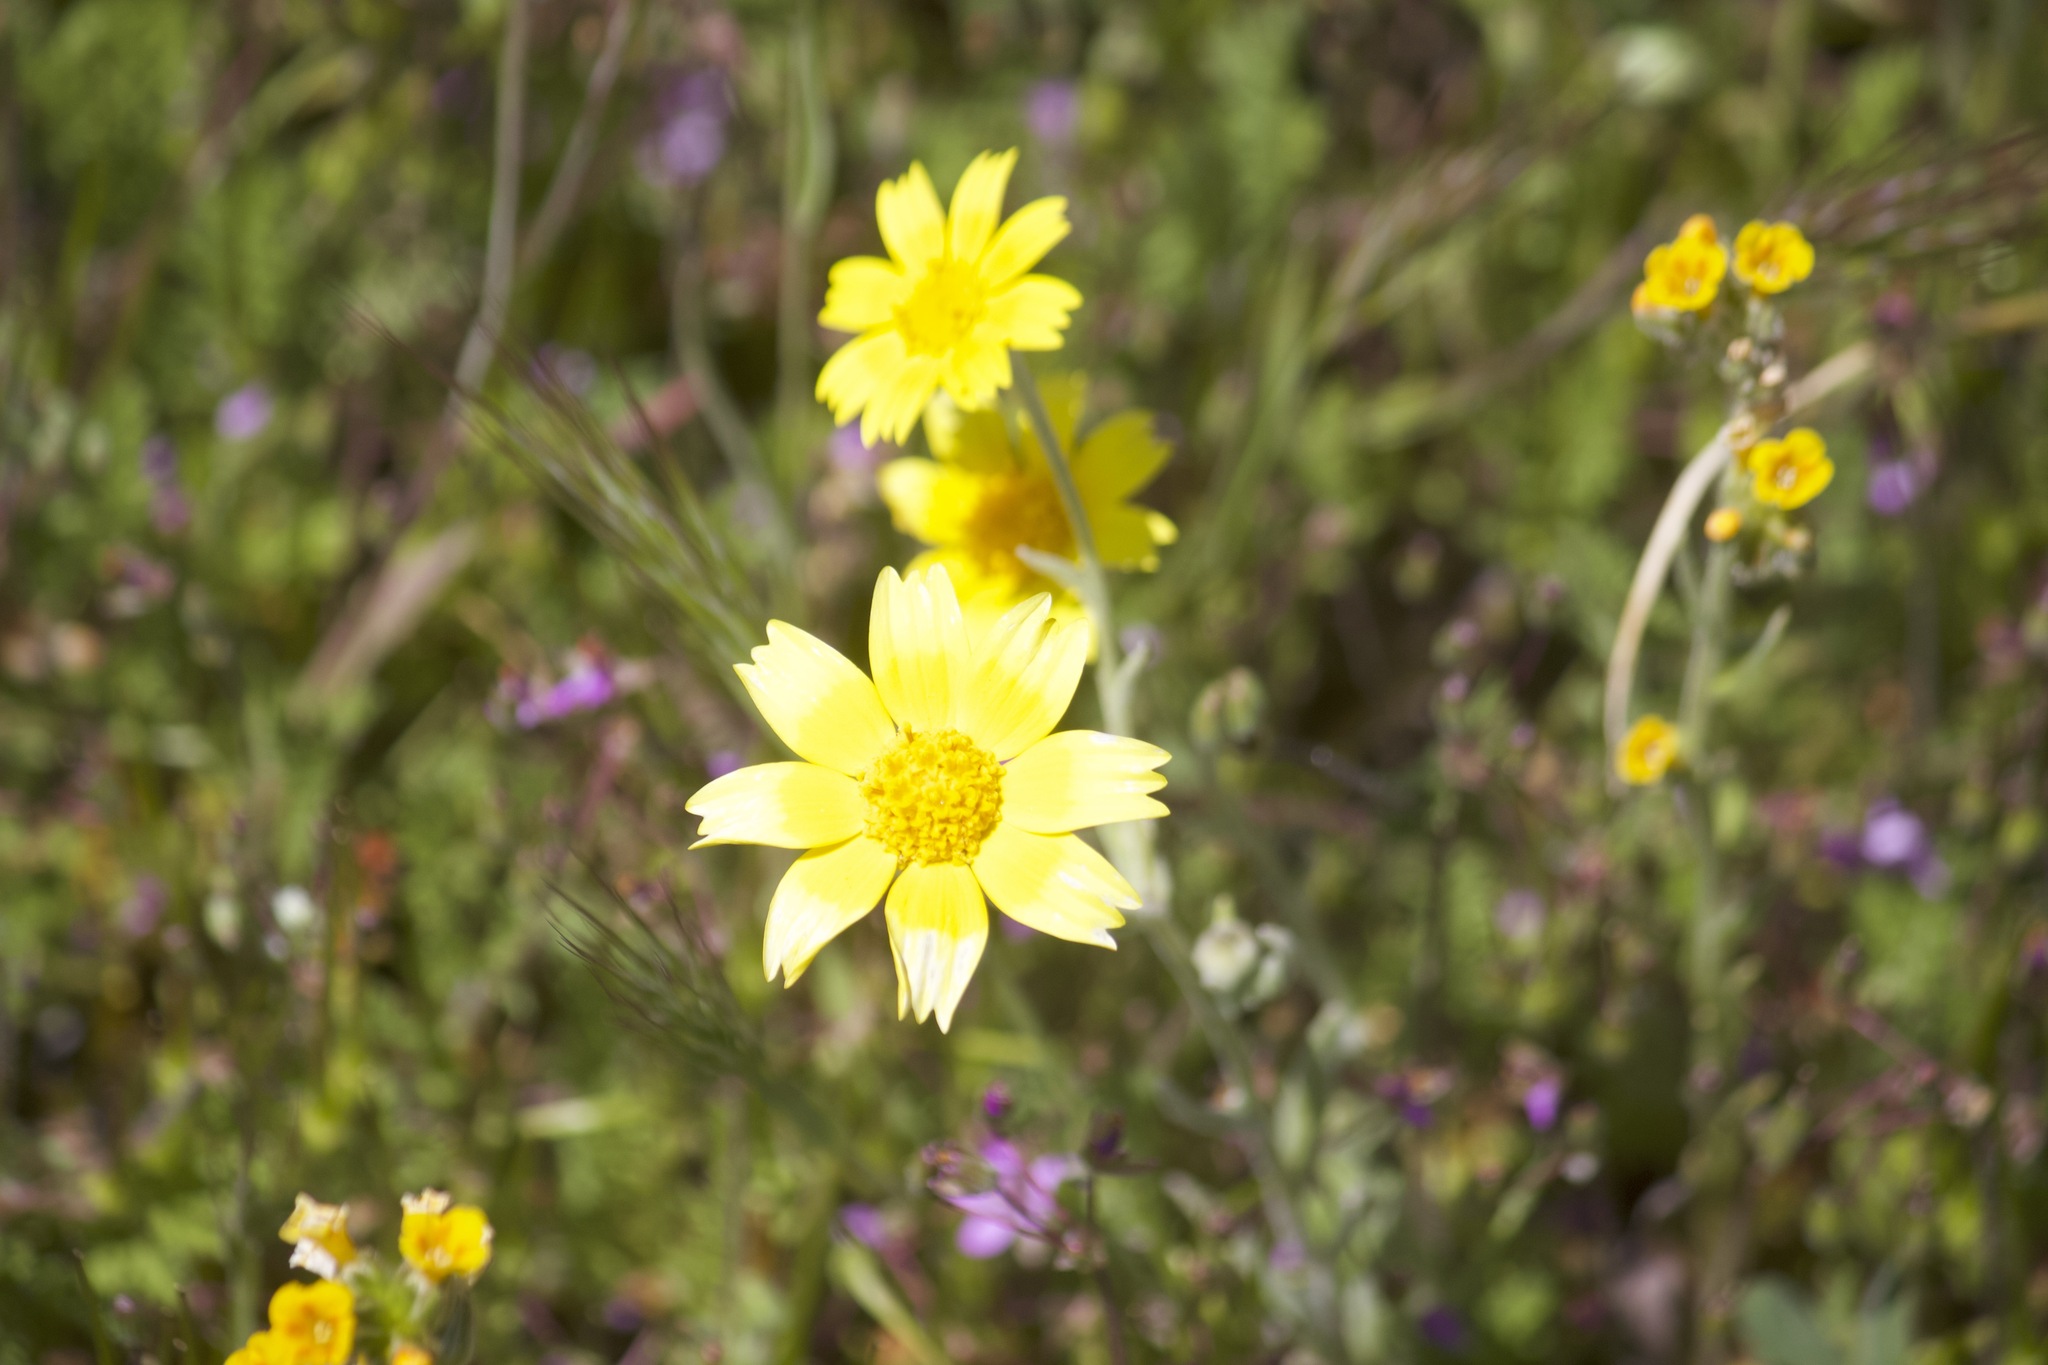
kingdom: Plantae
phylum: Tracheophyta
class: Magnoliopsida
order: Asterales
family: Asteraceae
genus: Monolopia
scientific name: Monolopia lanceolata
